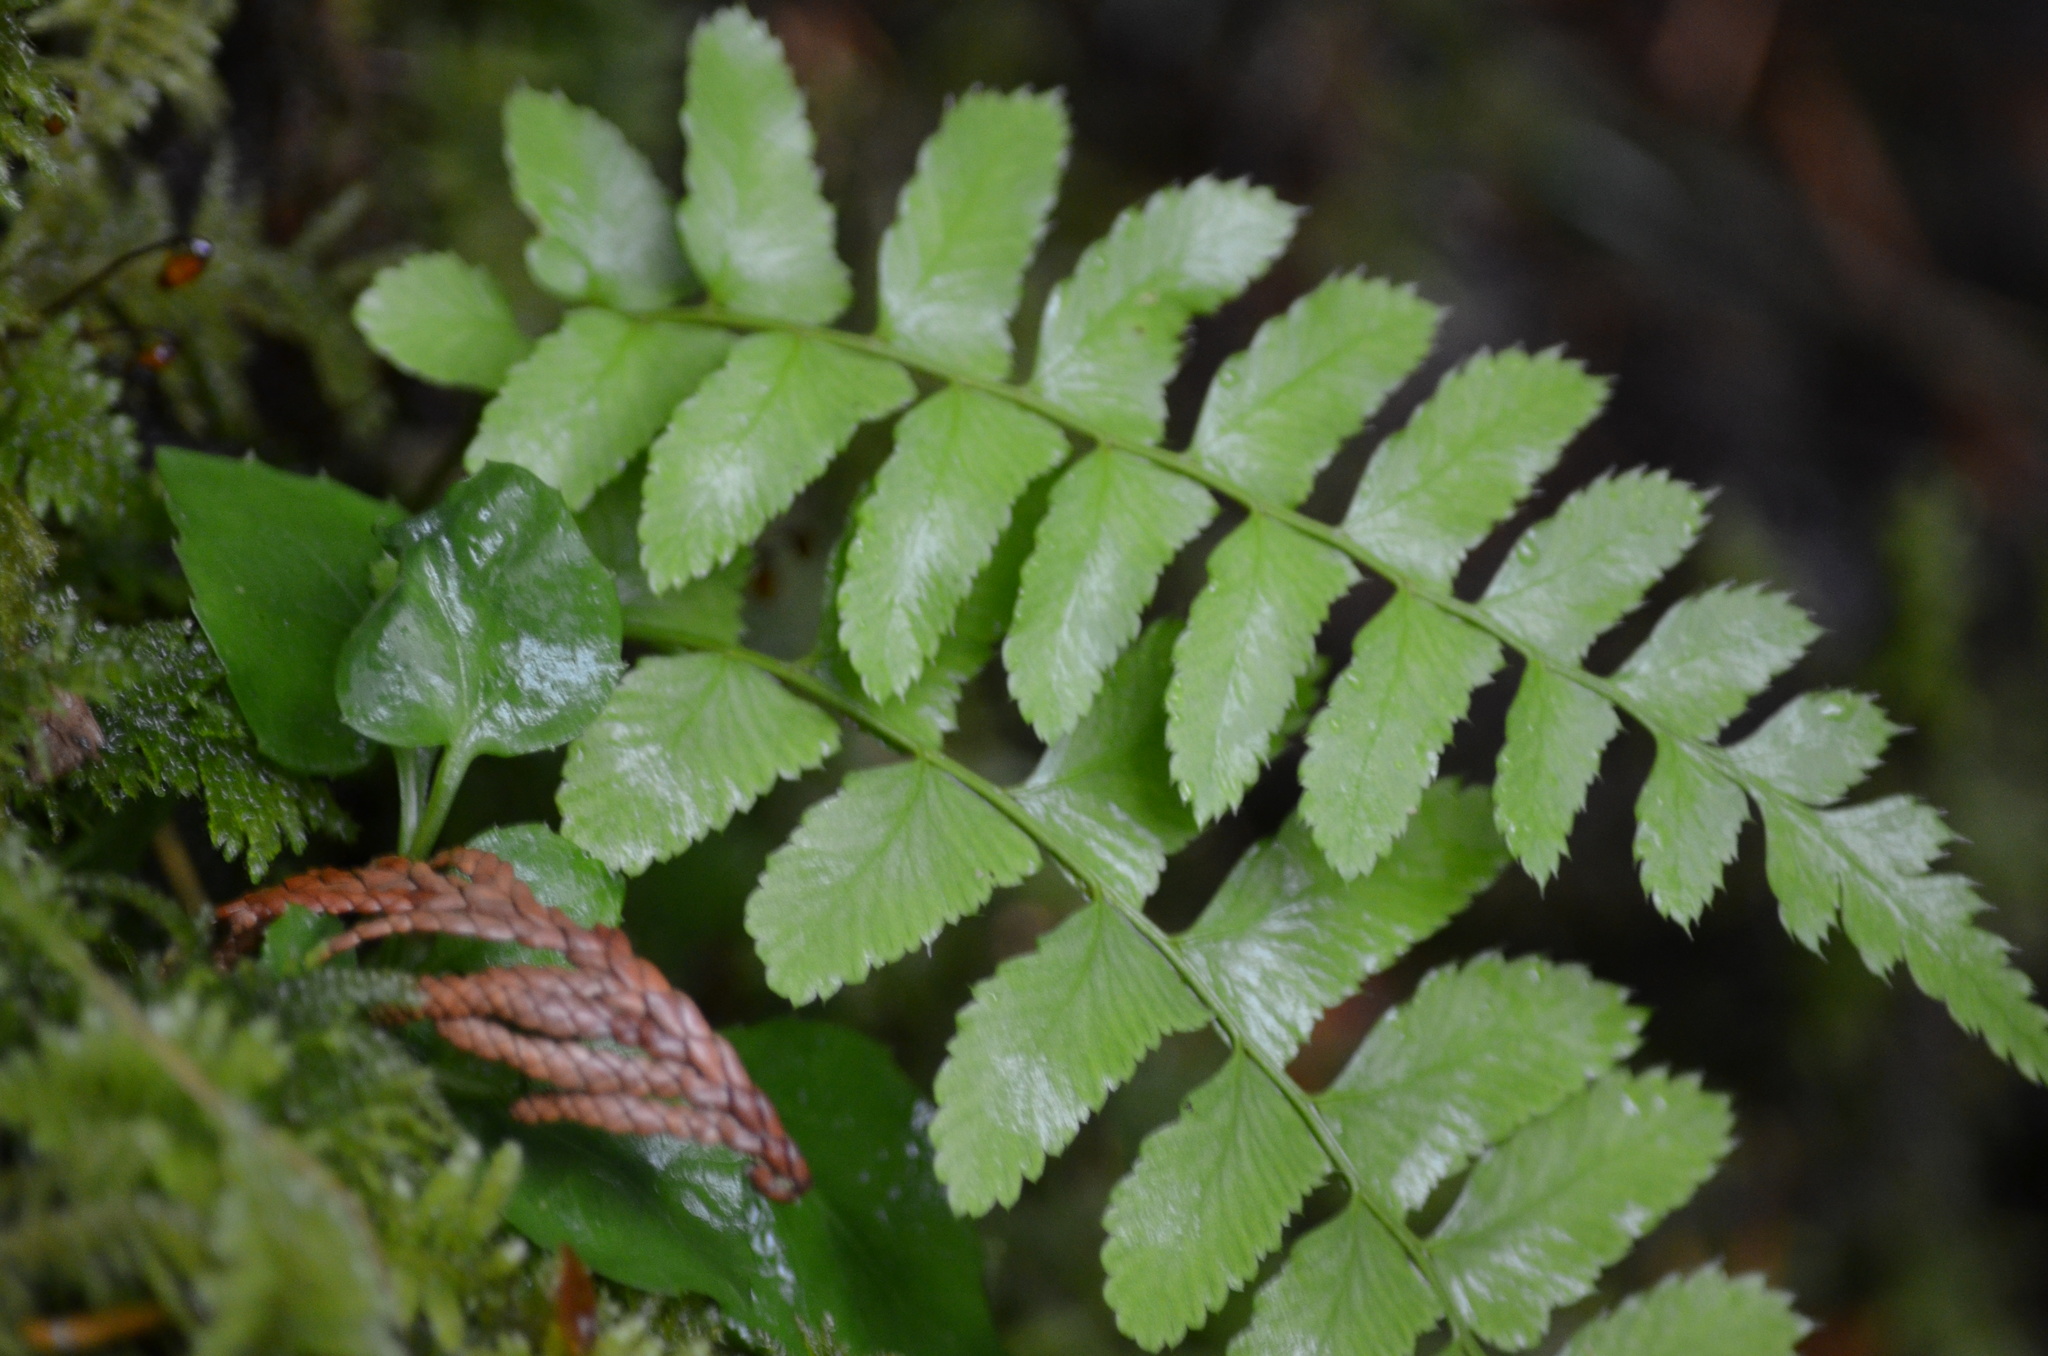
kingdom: Plantae
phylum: Tracheophyta
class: Polypodiopsida
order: Polypodiales
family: Dryopteridaceae
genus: Polystichum
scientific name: Polystichum munitum
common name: Western sword-fern
